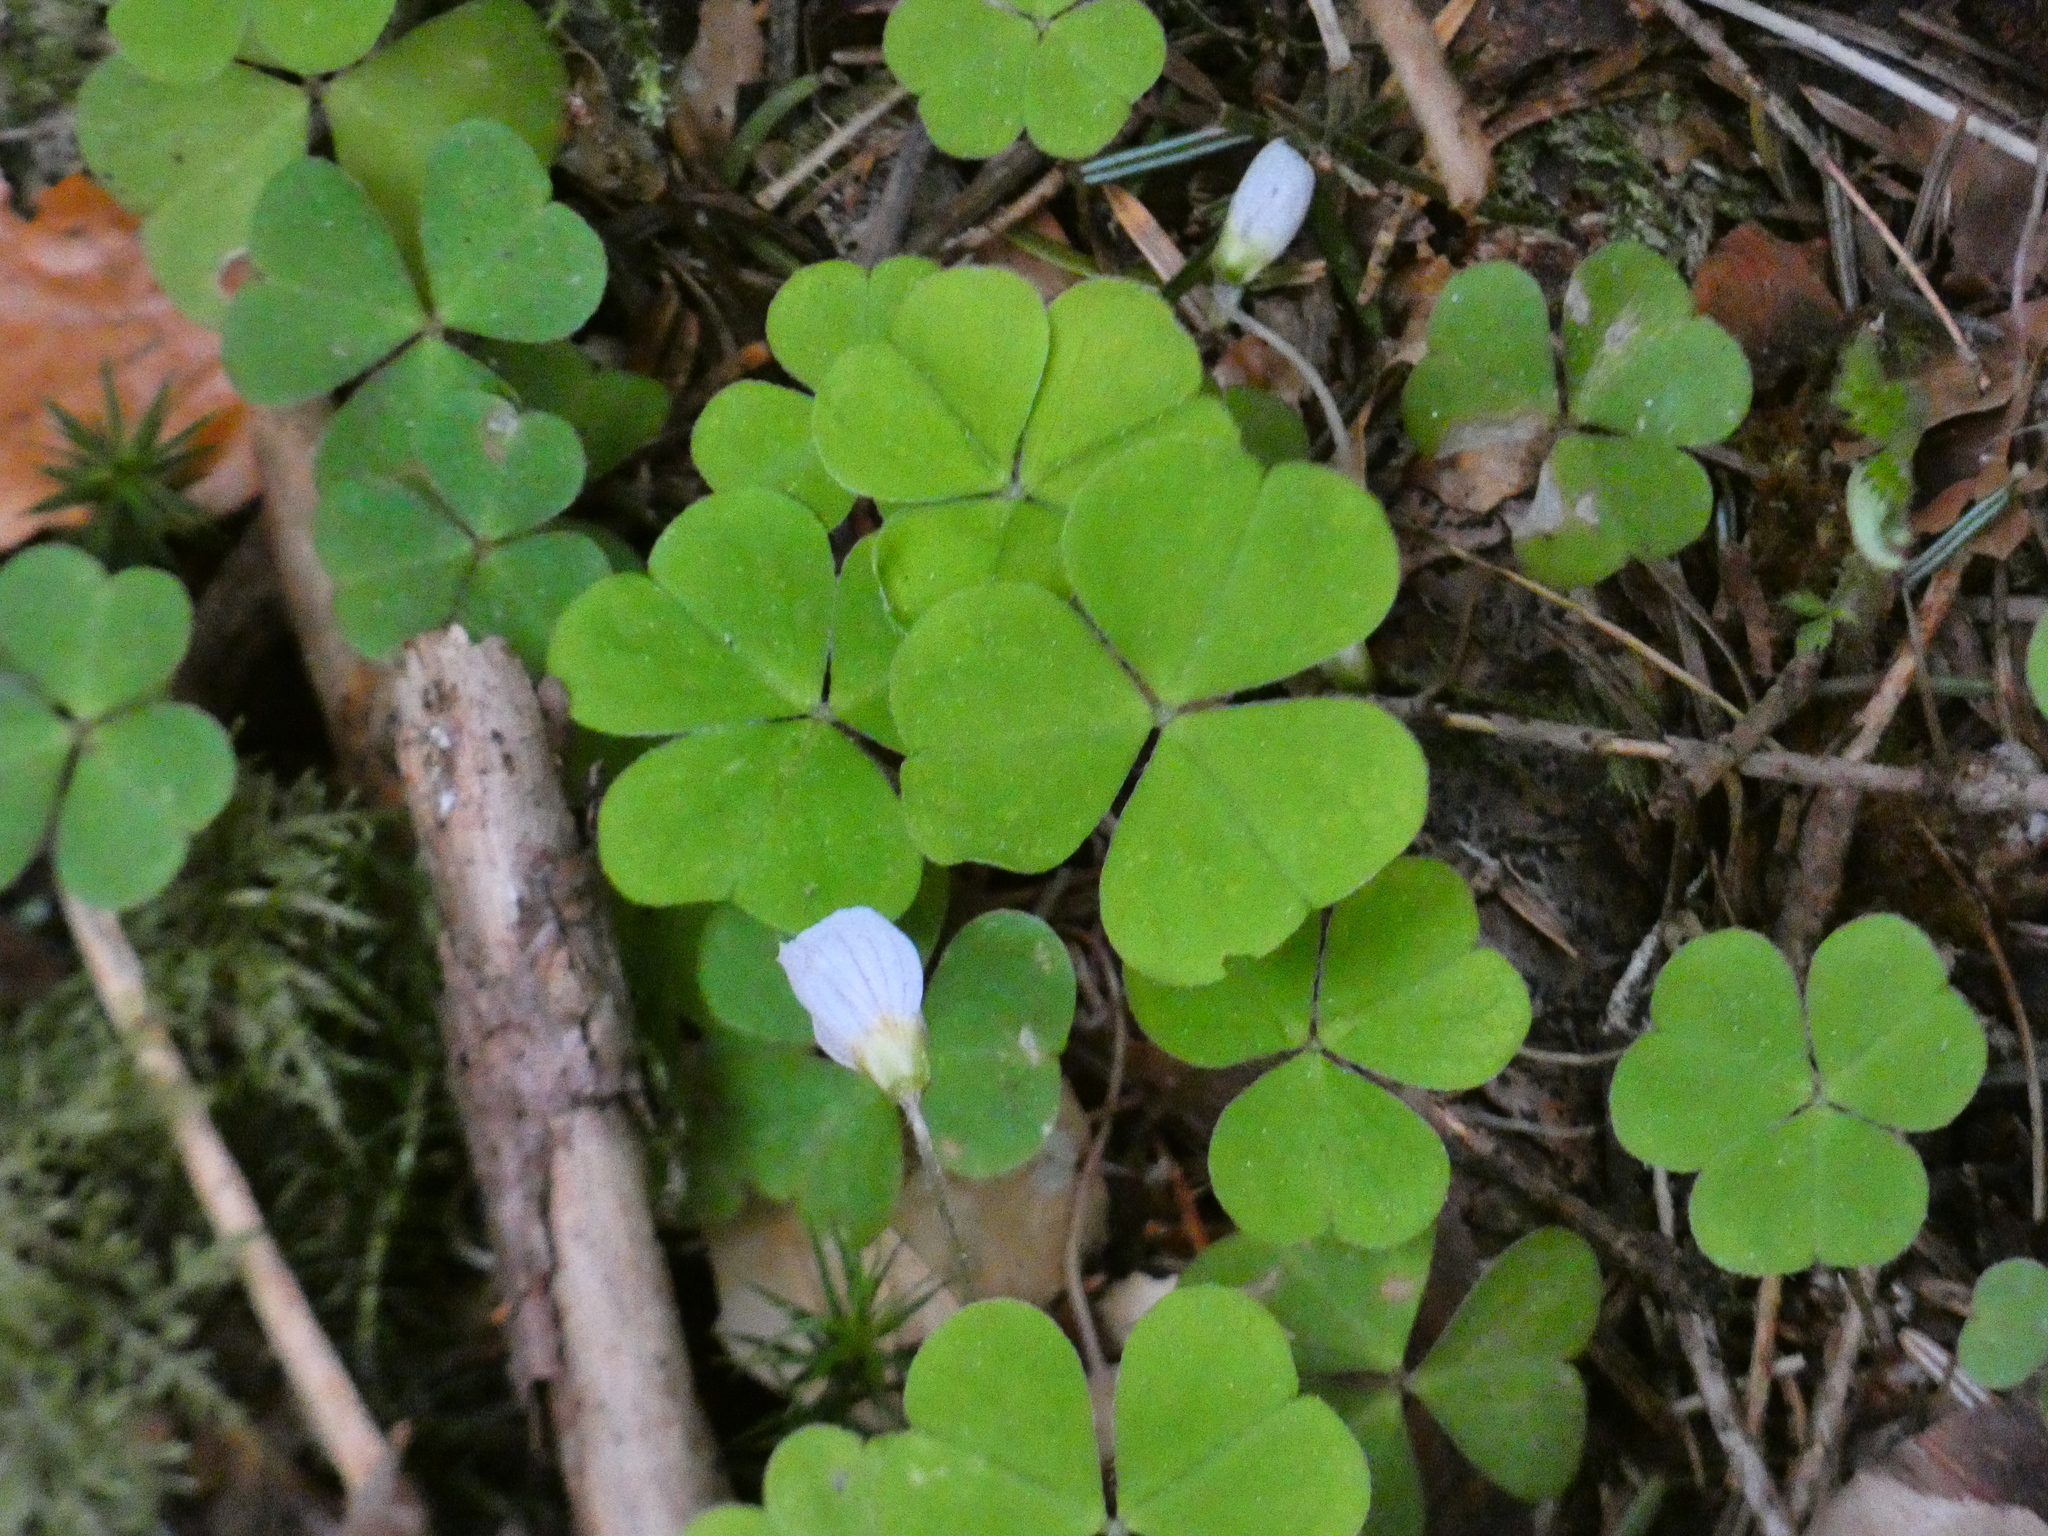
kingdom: Plantae
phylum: Tracheophyta
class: Magnoliopsida
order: Oxalidales
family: Oxalidaceae
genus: Oxalis
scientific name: Oxalis acetosella
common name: Wood-sorrel
